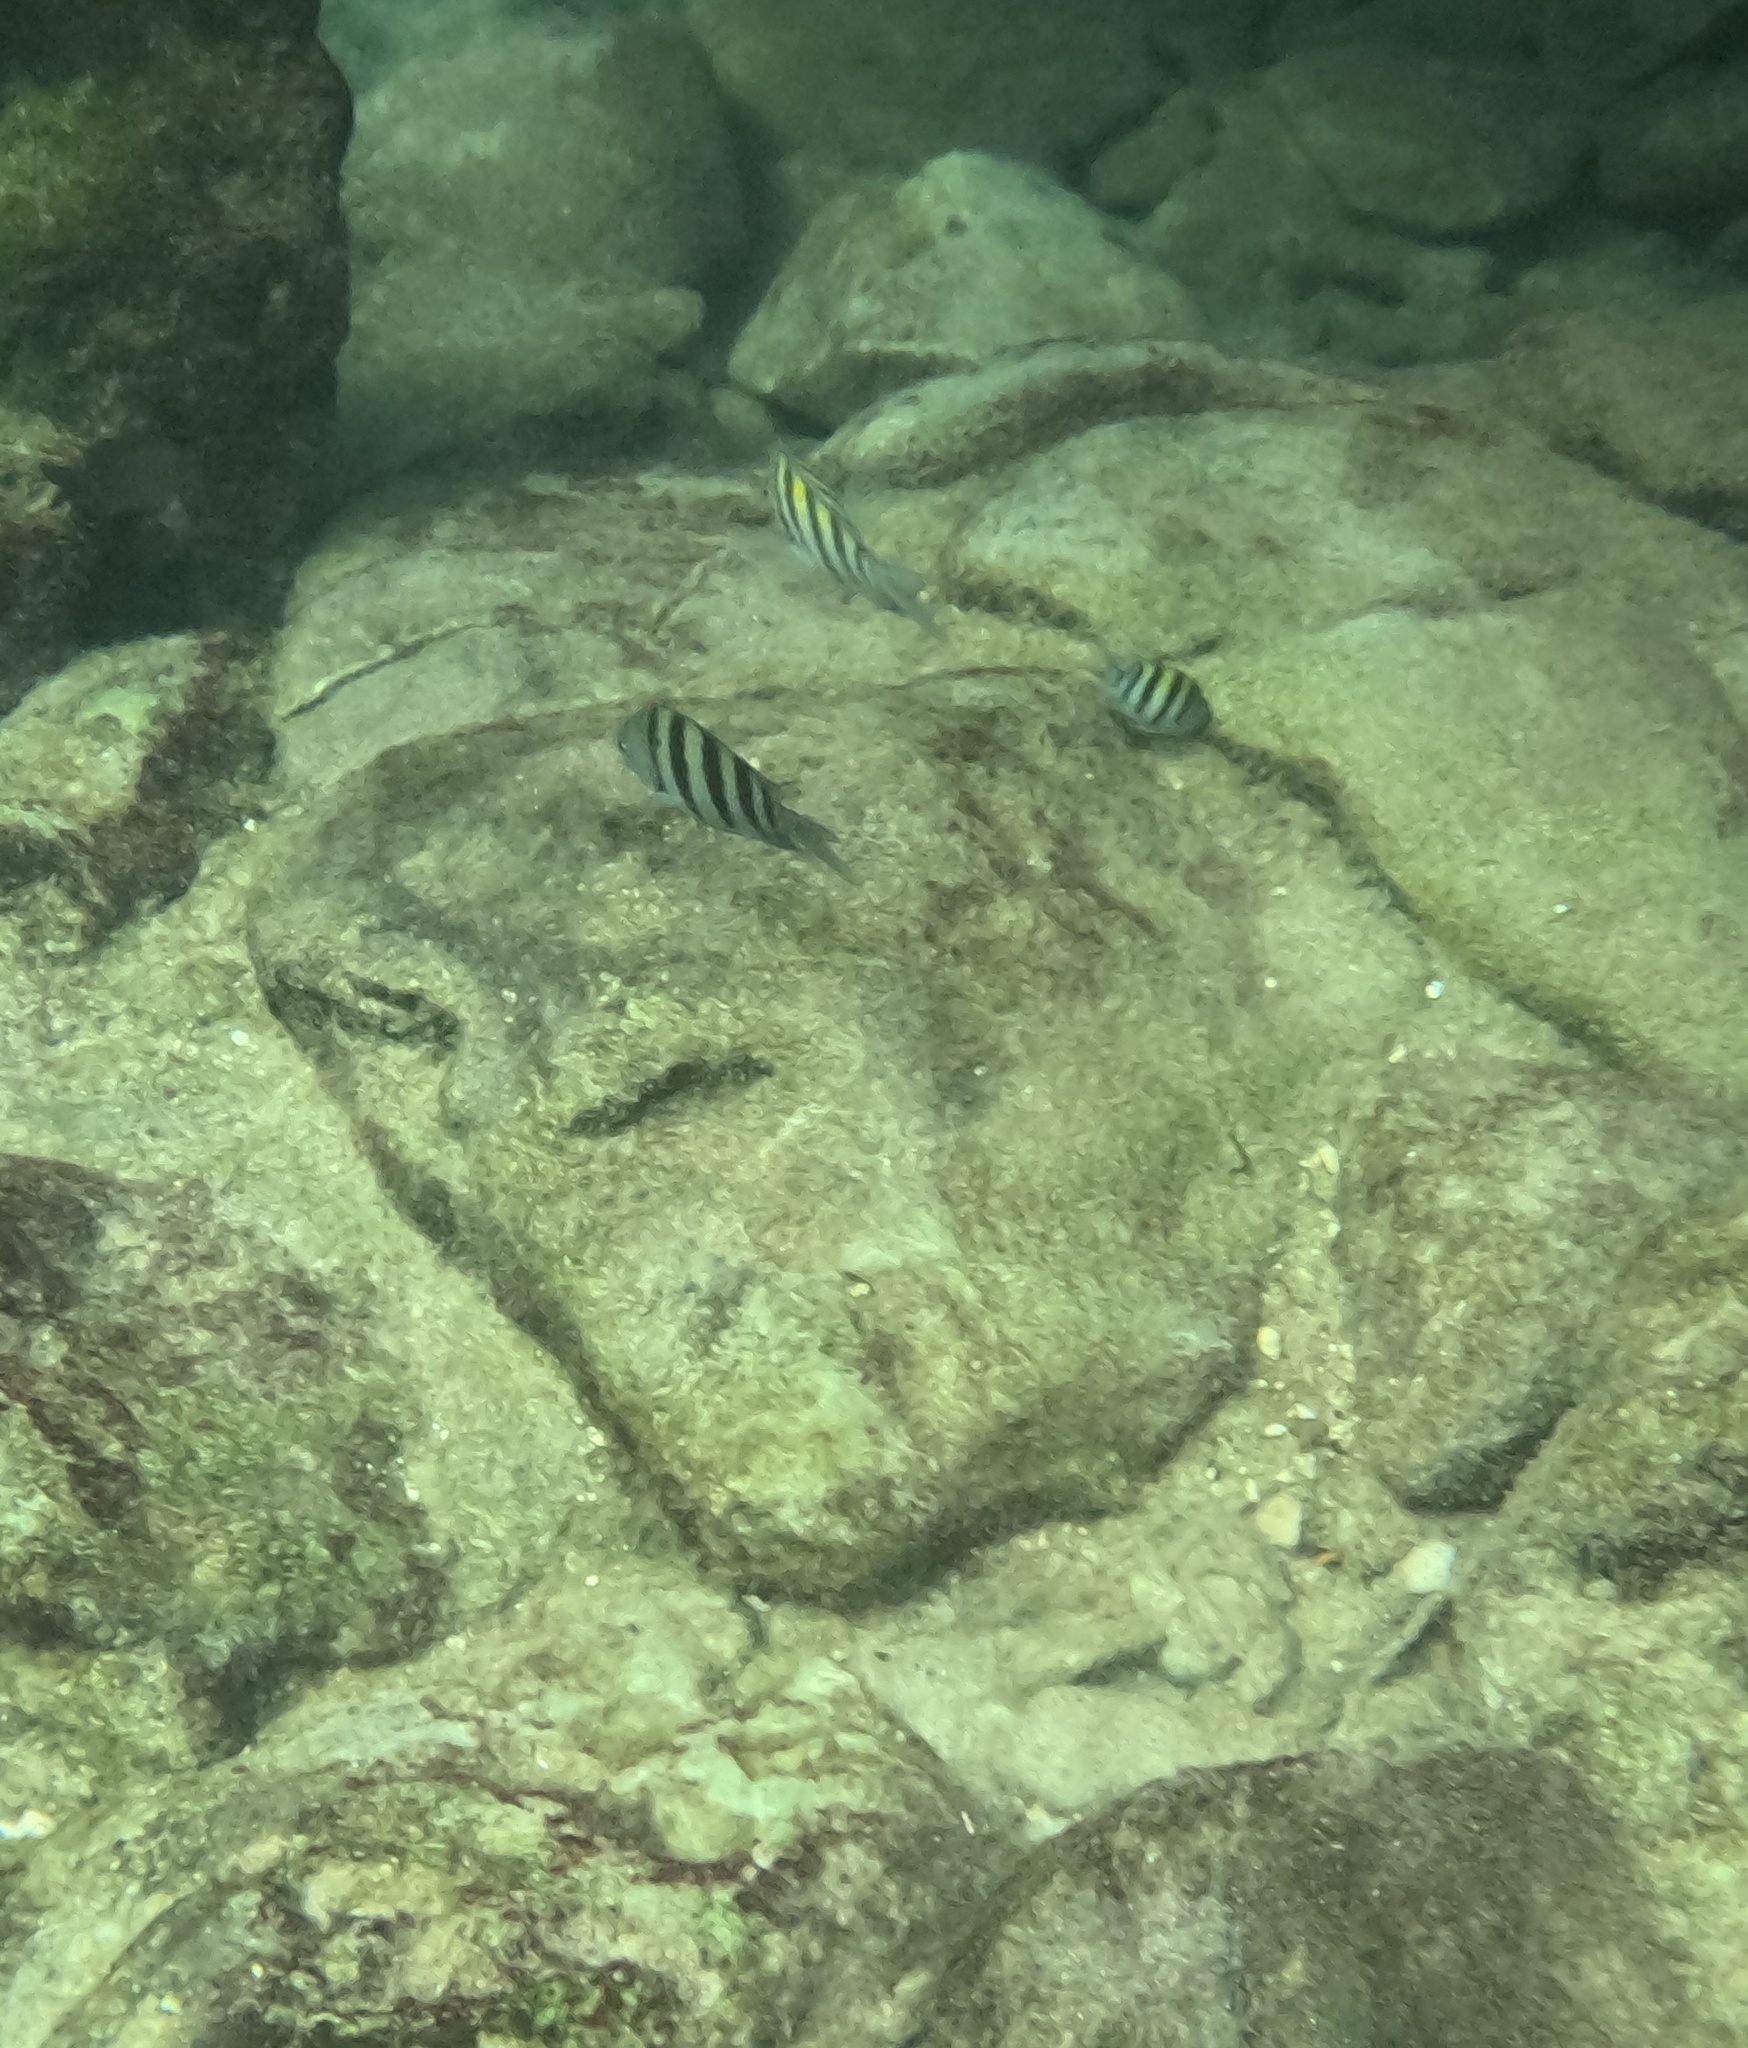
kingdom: Animalia
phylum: Chordata
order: Perciformes
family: Pomacentridae
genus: Abudefduf
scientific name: Abudefduf saxatilis
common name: Sergeant major
